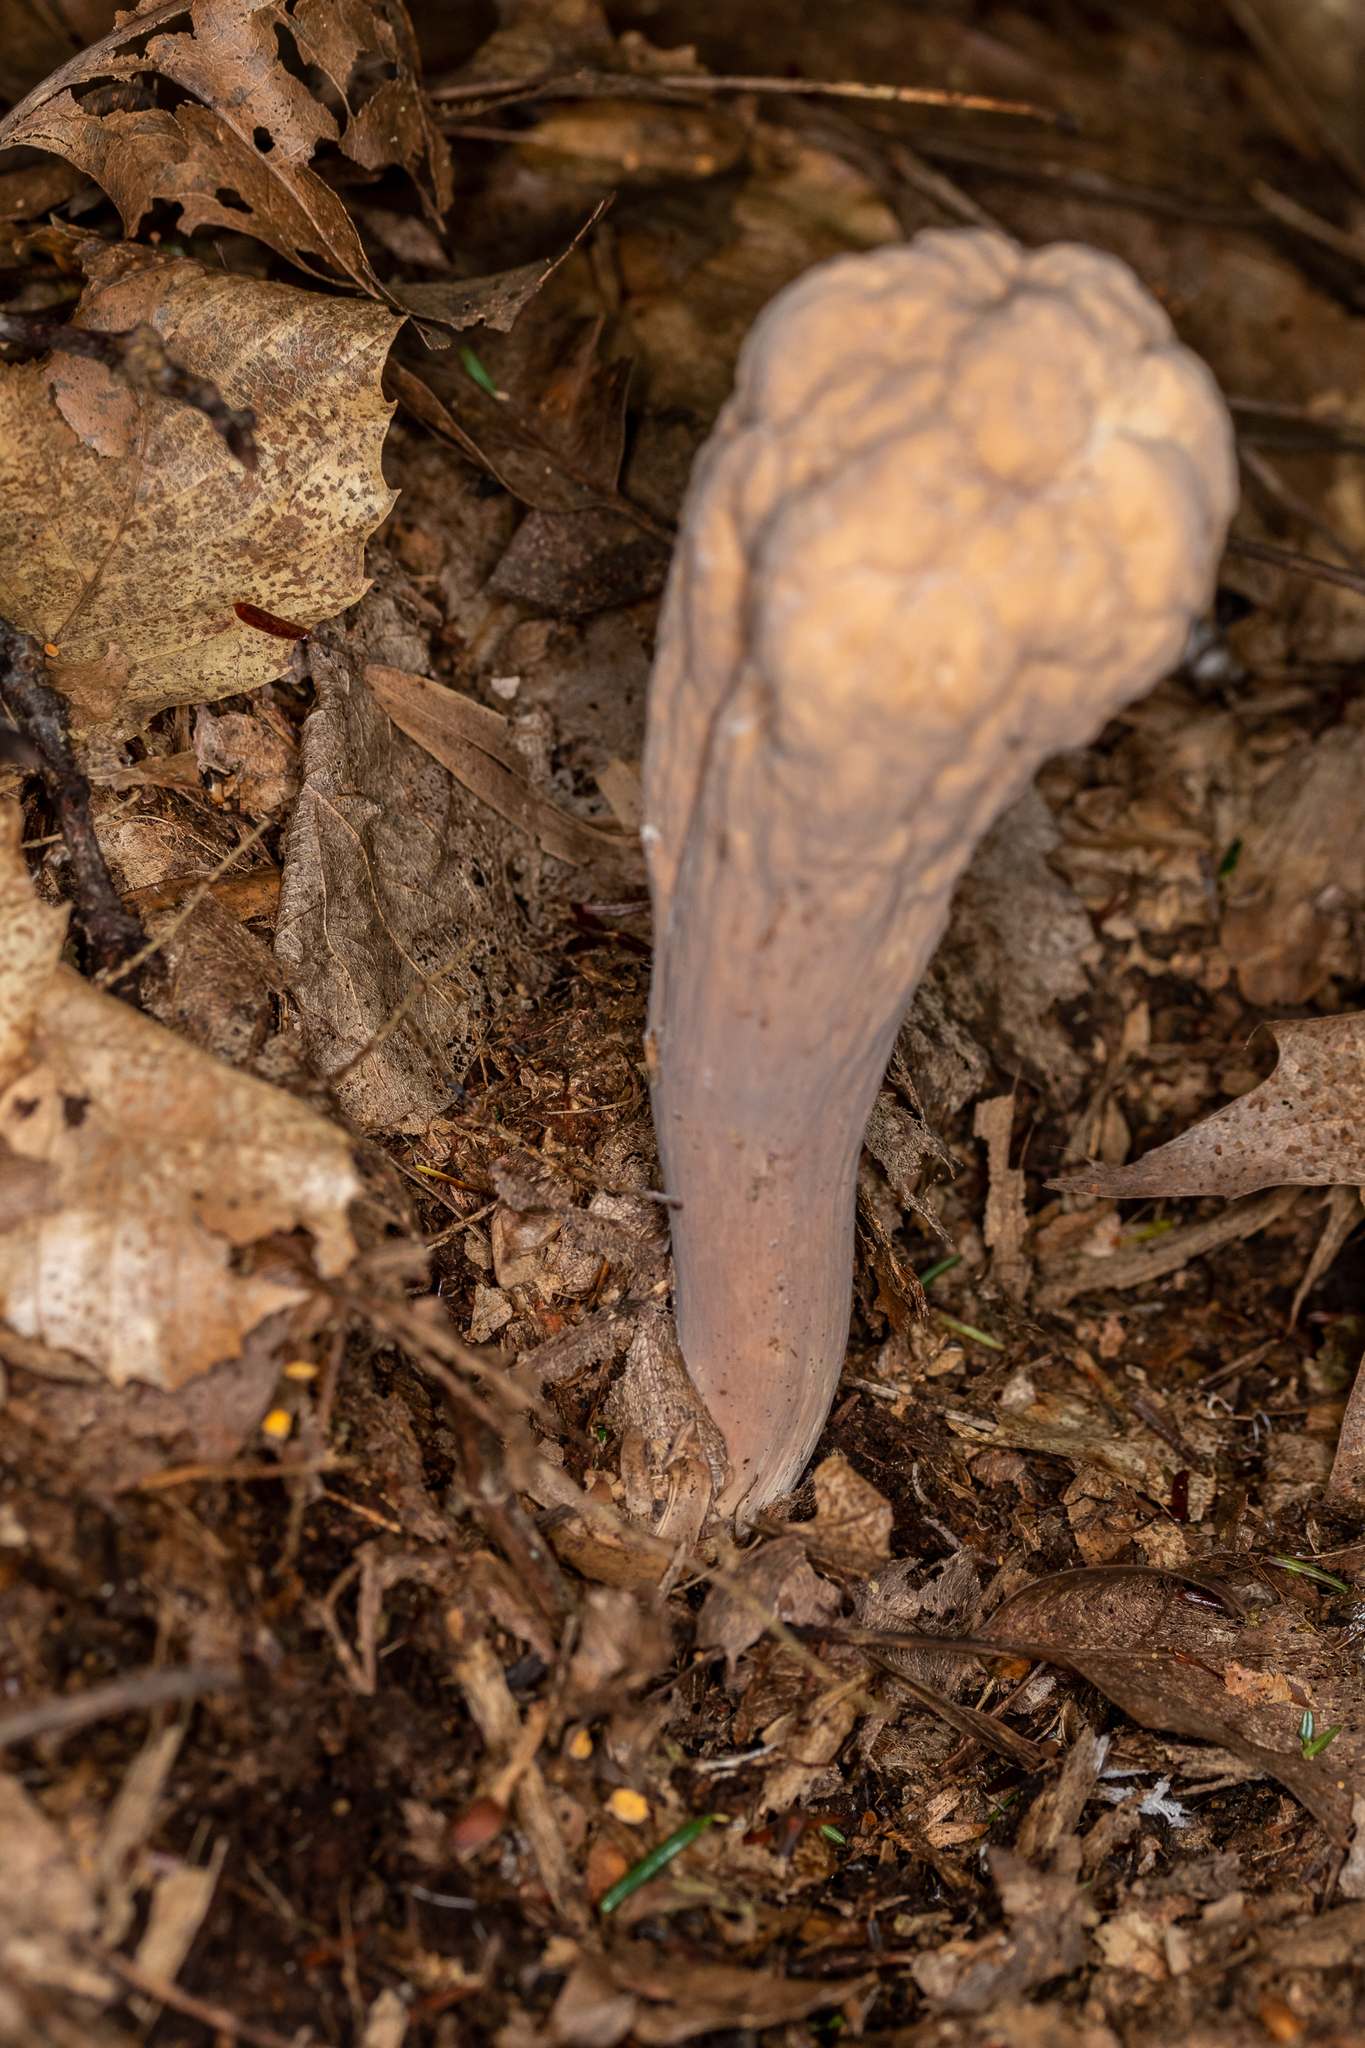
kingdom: Fungi
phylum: Basidiomycota
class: Agaricomycetes
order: Gomphales
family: Clavariadelphaceae
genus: Clavariadelphus
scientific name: Clavariadelphus pistillaris
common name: Giant club
